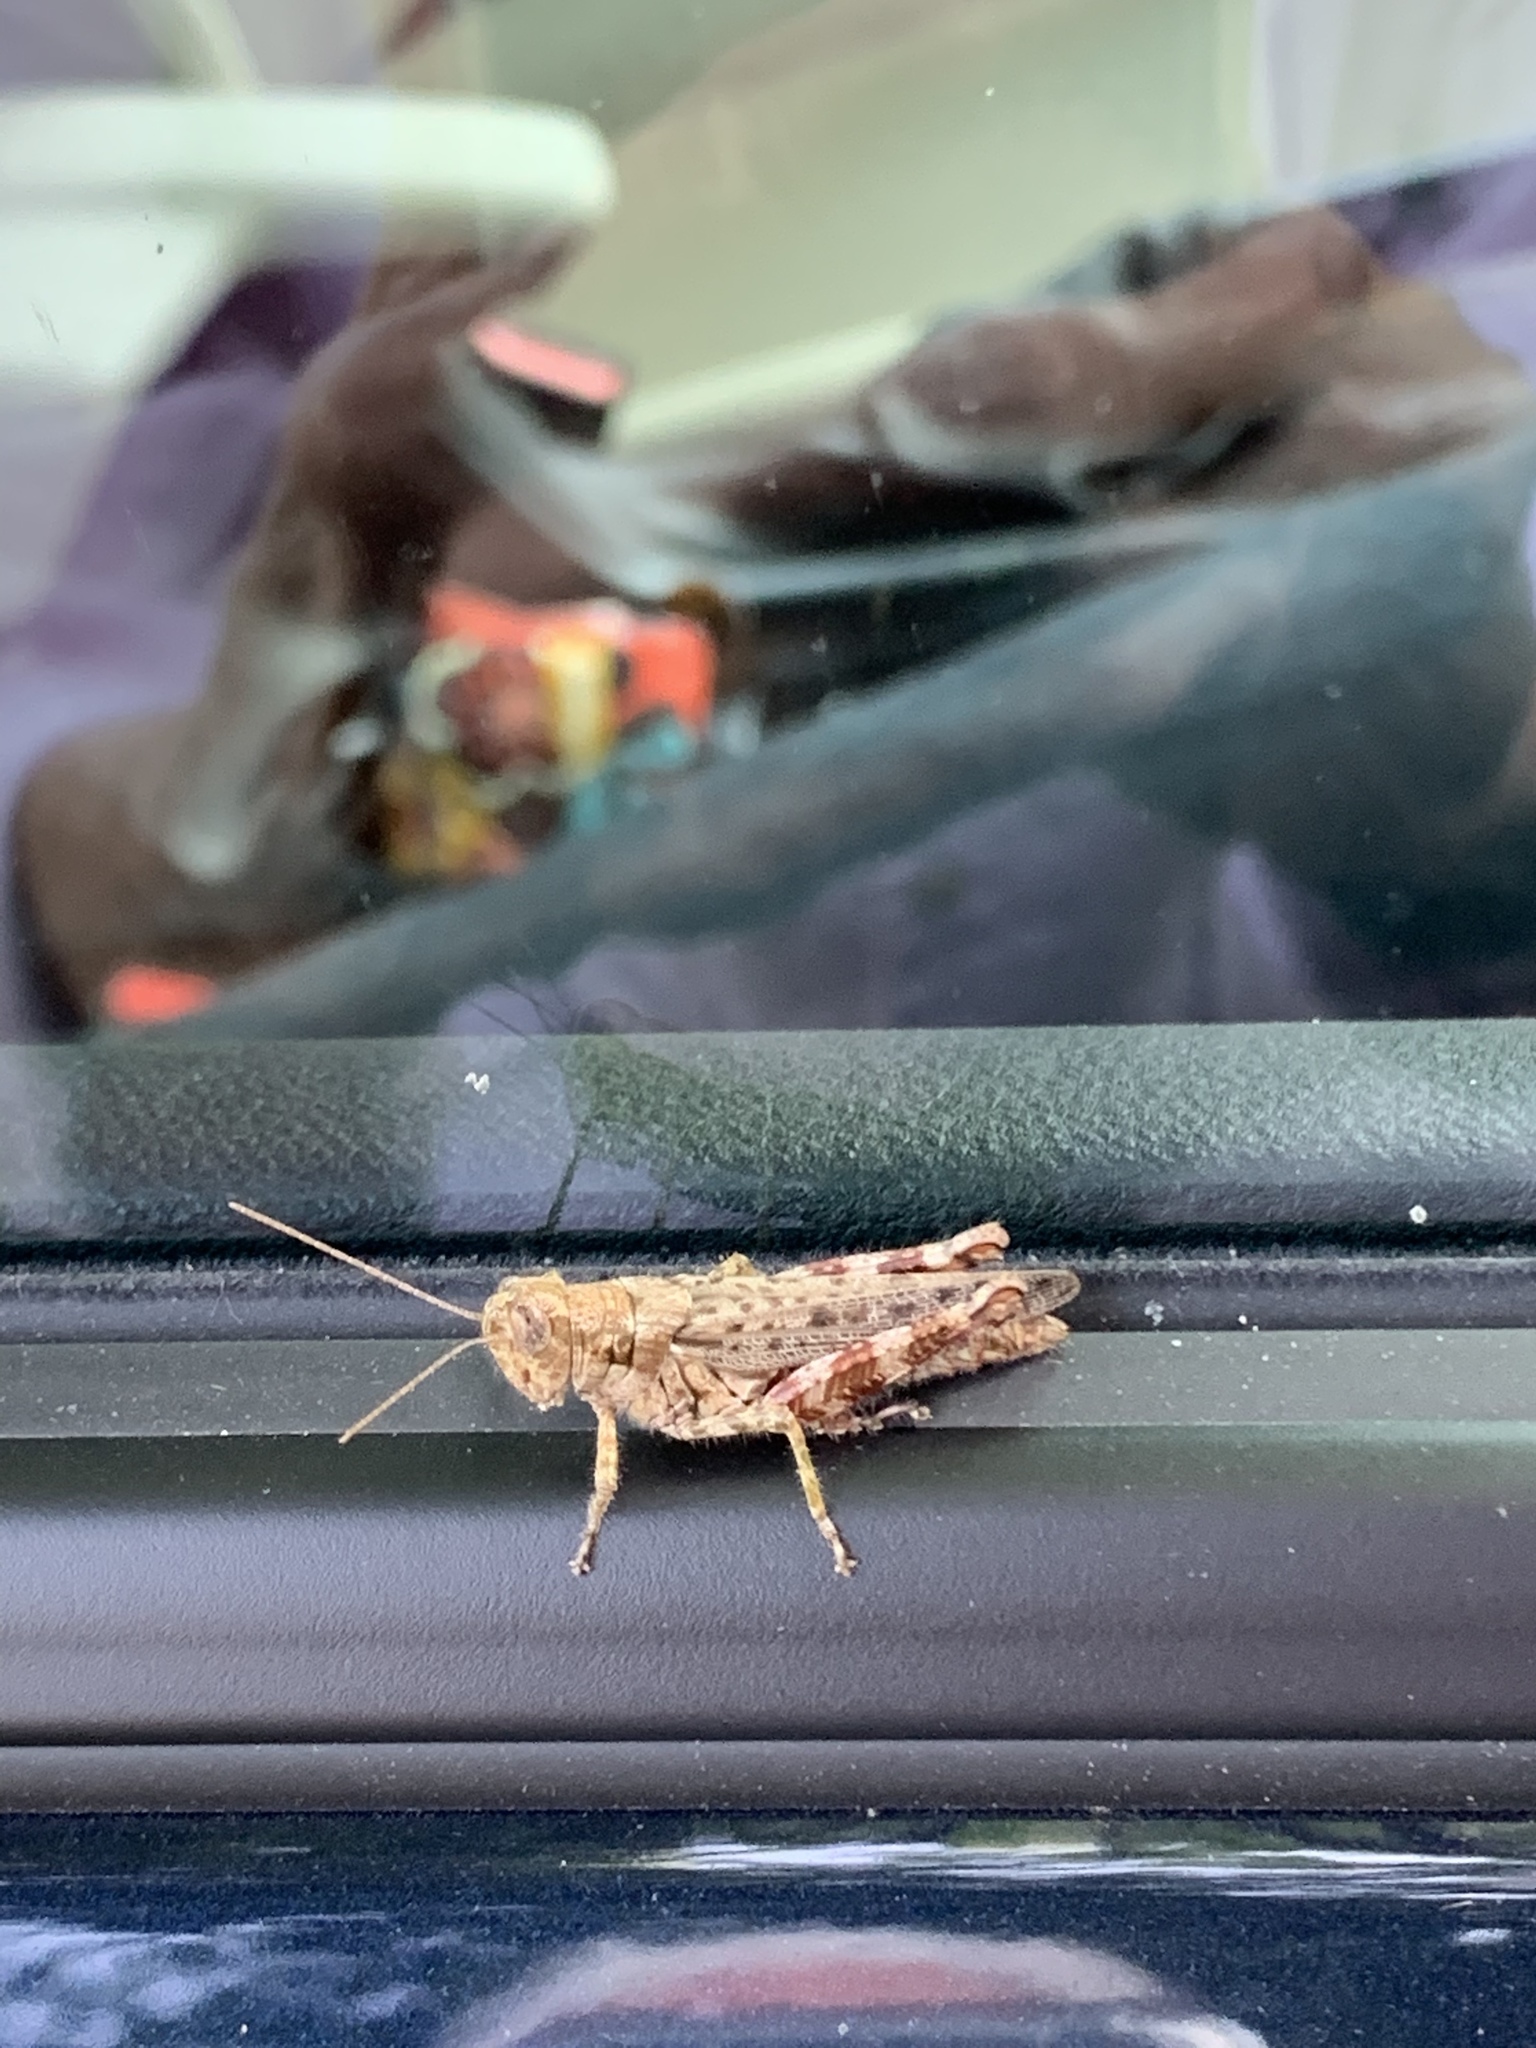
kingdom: Animalia
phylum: Arthropoda
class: Insecta
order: Orthoptera
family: Acrididae
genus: Melanoplus
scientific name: Melanoplus punctulatus
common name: Pine-tree spur-throat grasshopper
